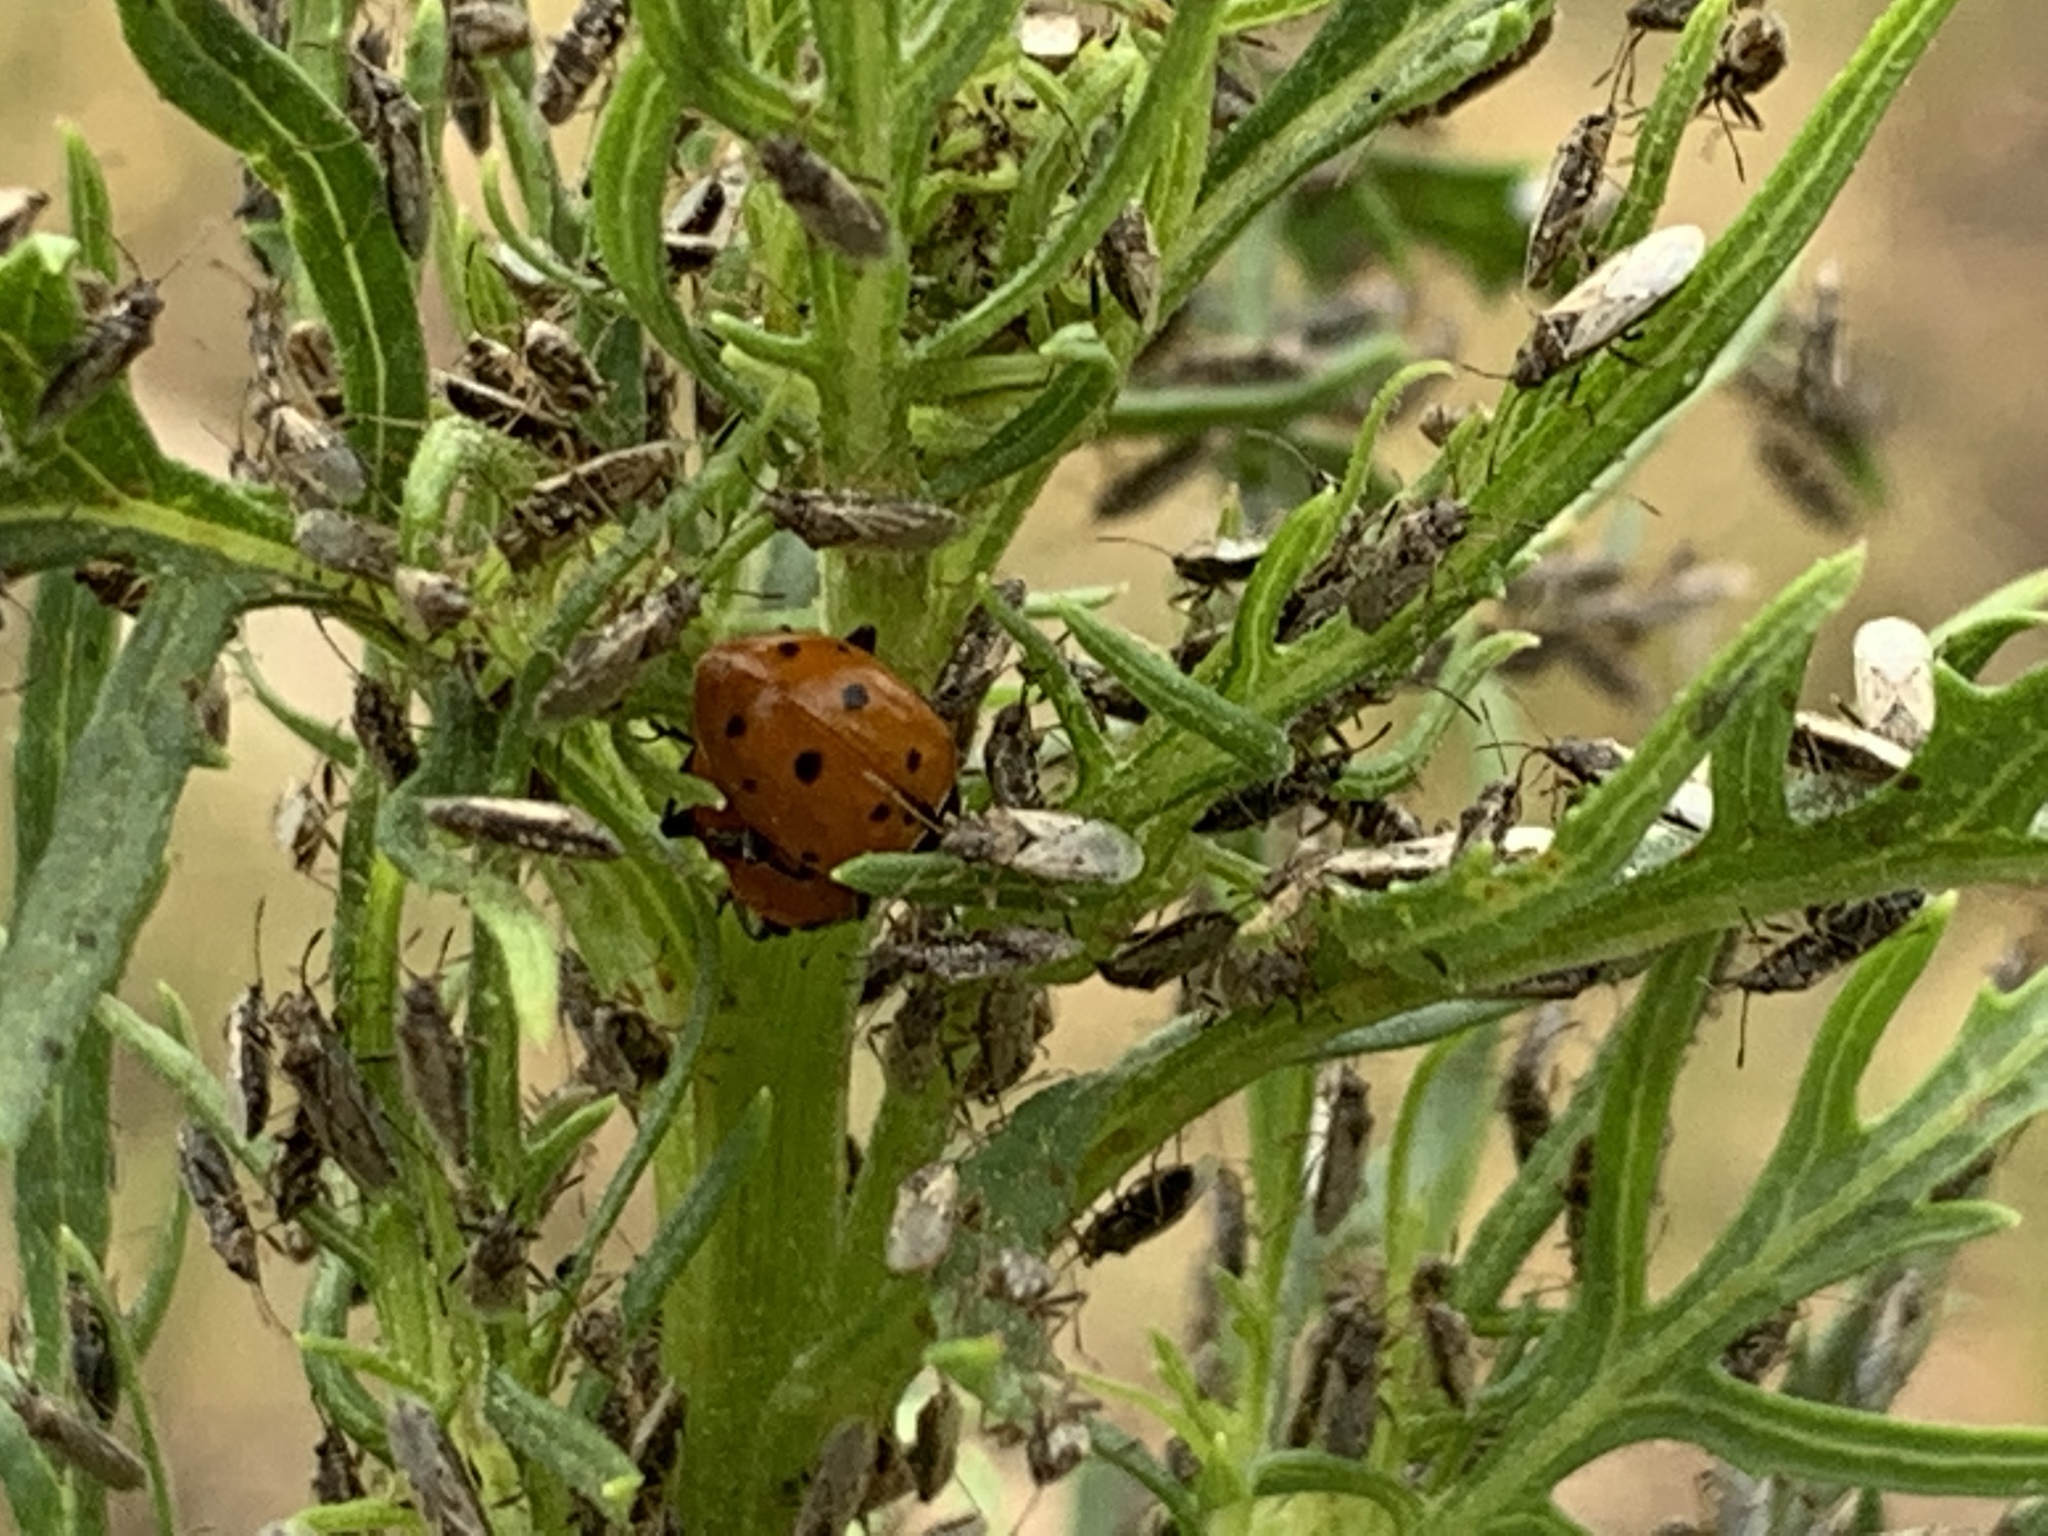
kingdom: Animalia
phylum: Arthropoda
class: Insecta
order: Coleoptera
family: Coccinellidae
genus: Hippodamia
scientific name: Hippodamia convergens
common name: Convergent lady beetle
